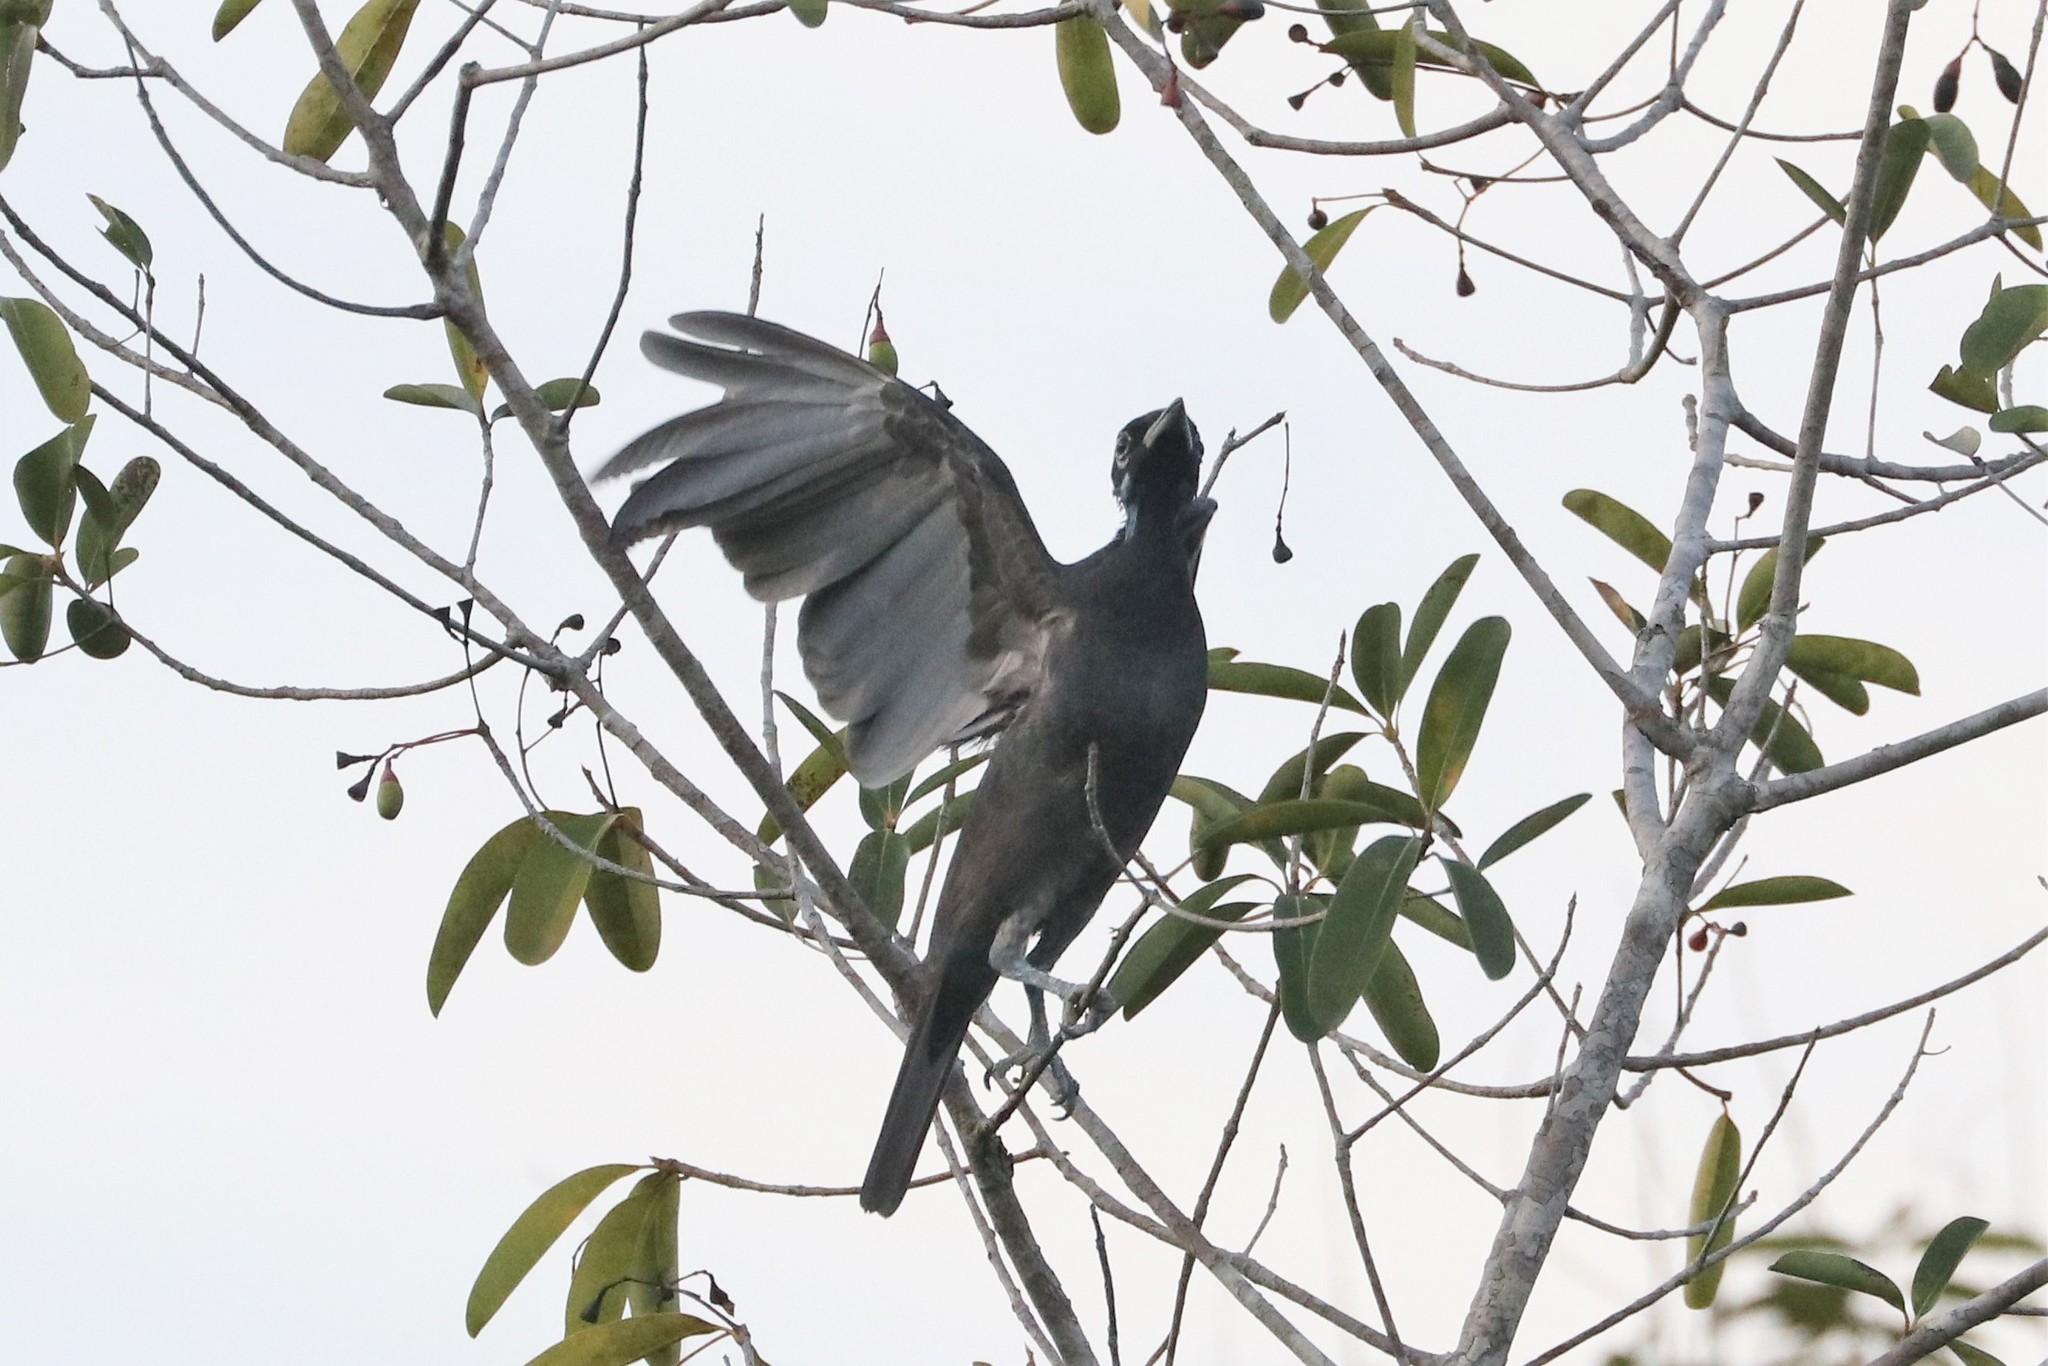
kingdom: Animalia
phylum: Chordata
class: Aves
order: Passeriformes
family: Cotingidae
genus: Gymnoderus
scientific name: Gymnoderus foetidus
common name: Bare-necked fruitcrow
